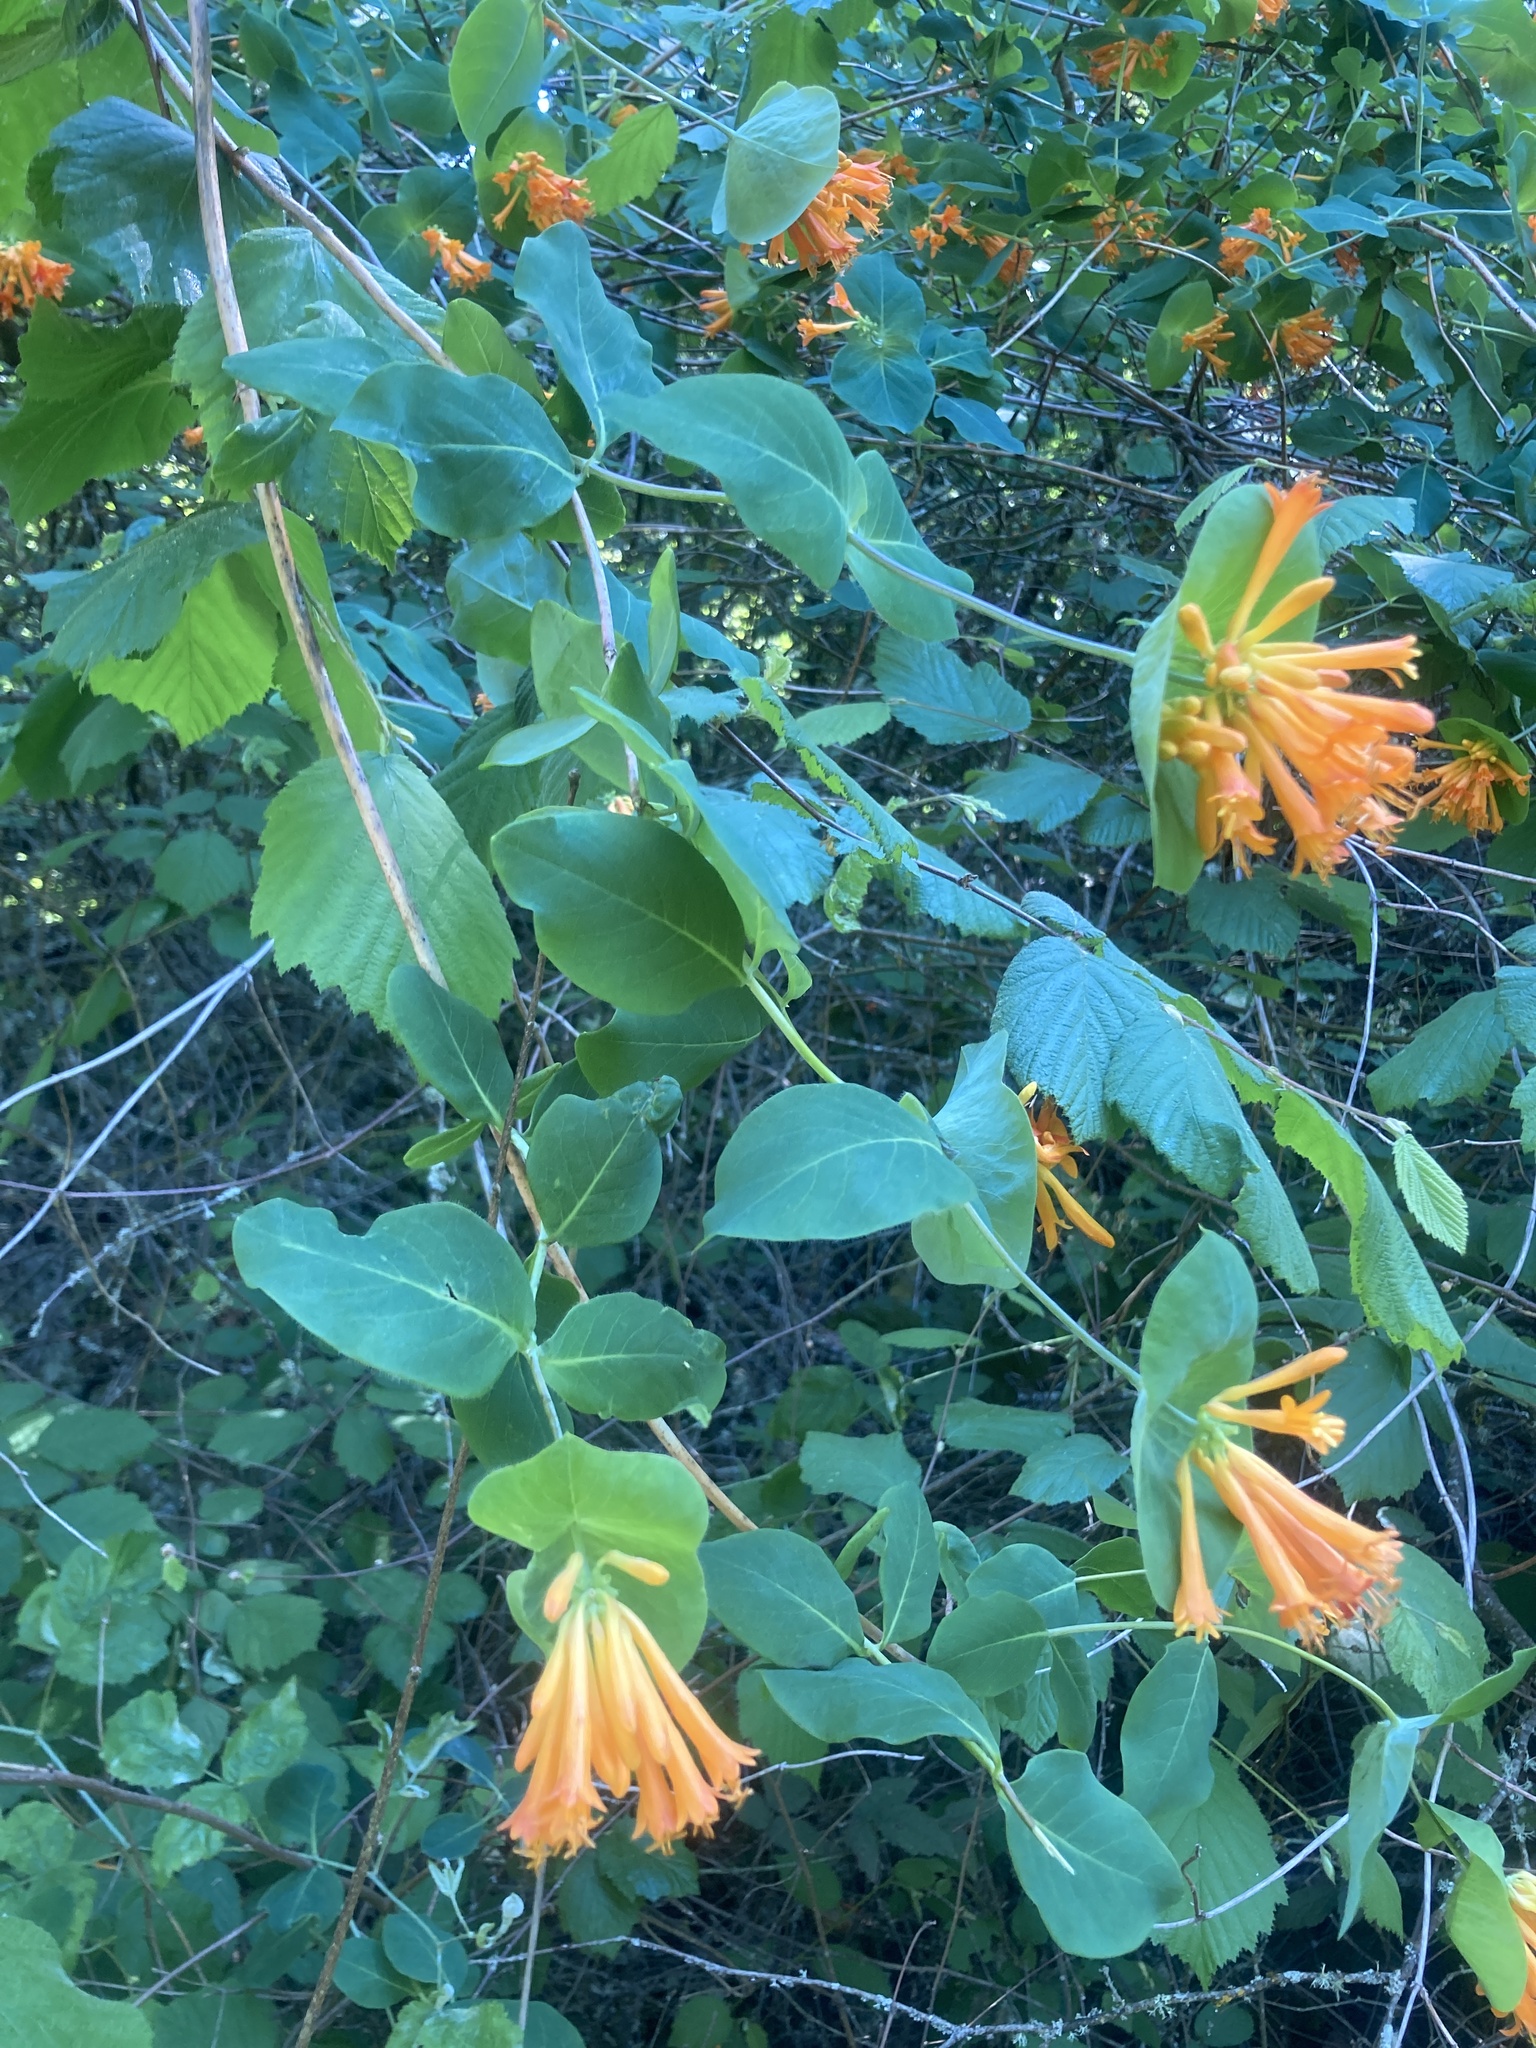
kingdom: Plantae
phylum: Tracheophyta
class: Magnoliopsida
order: Dipsacales
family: Caprifoliaceae
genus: Lonicera
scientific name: Lonicera ciliosa
